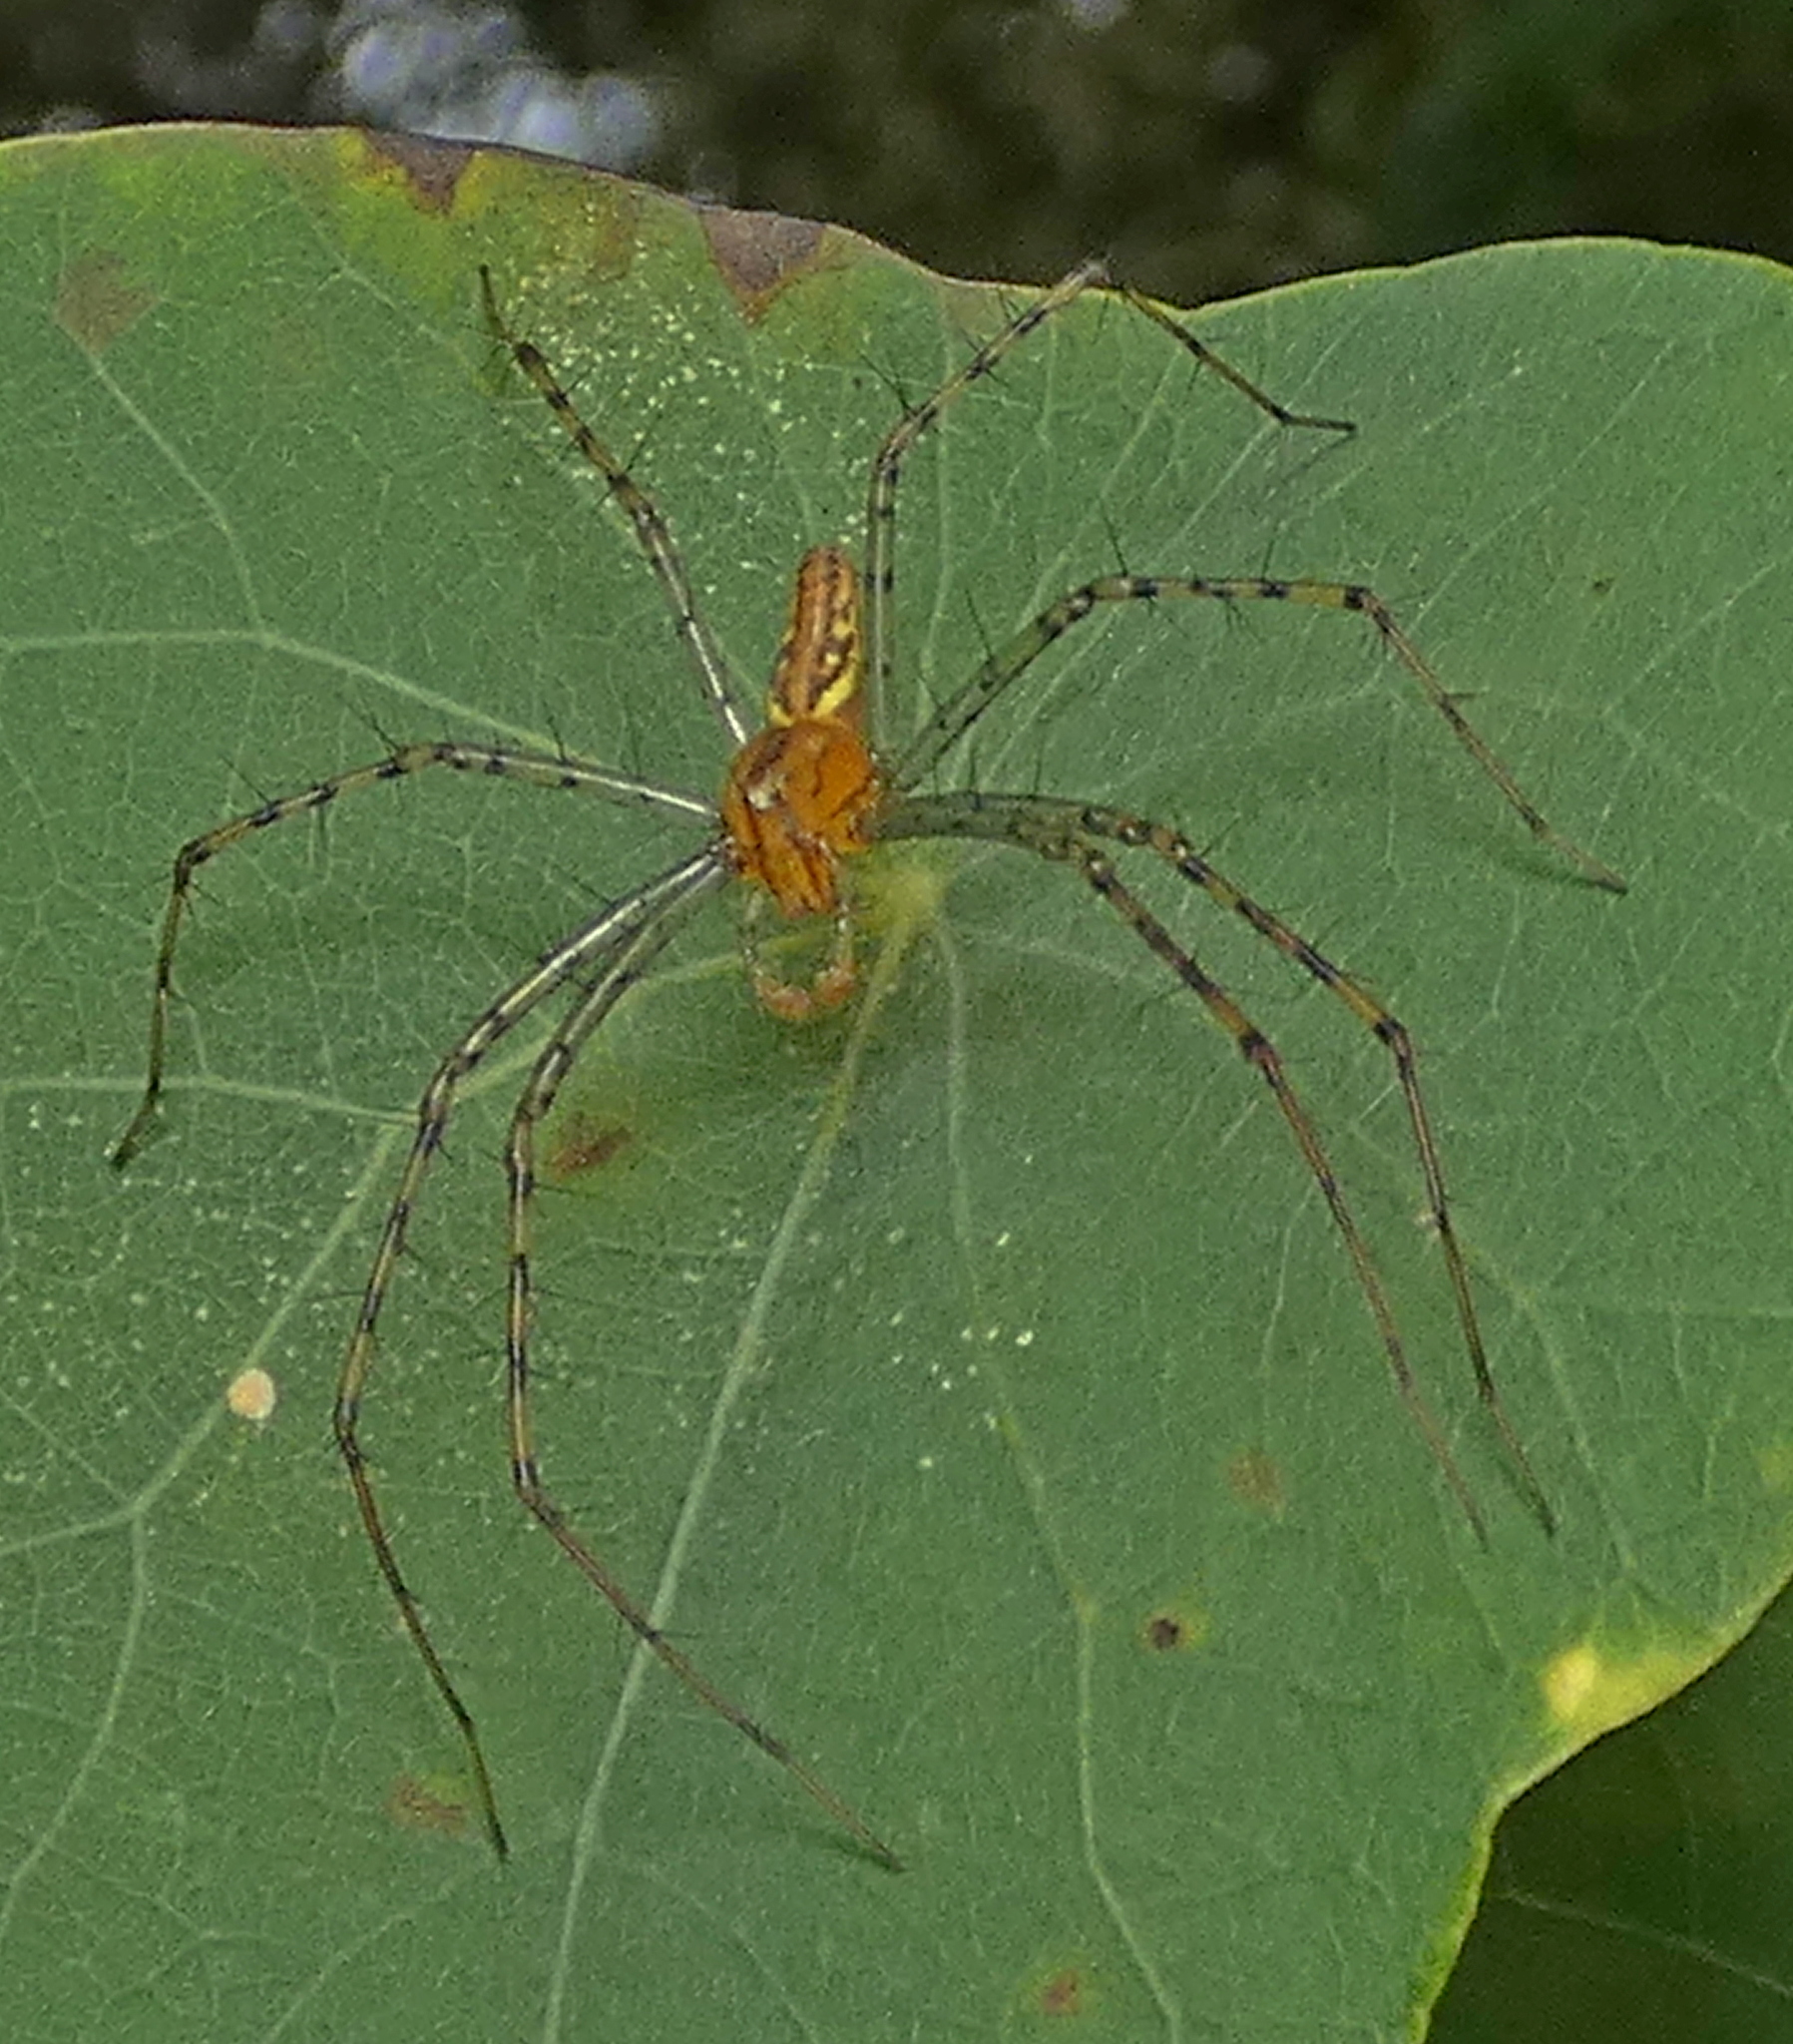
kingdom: Animalia
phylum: Arthropoda
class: Arachnida
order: Araneae
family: Oxyopidae
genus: Peucetia
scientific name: Peucetia rubrolineata
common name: Lynx spiders
